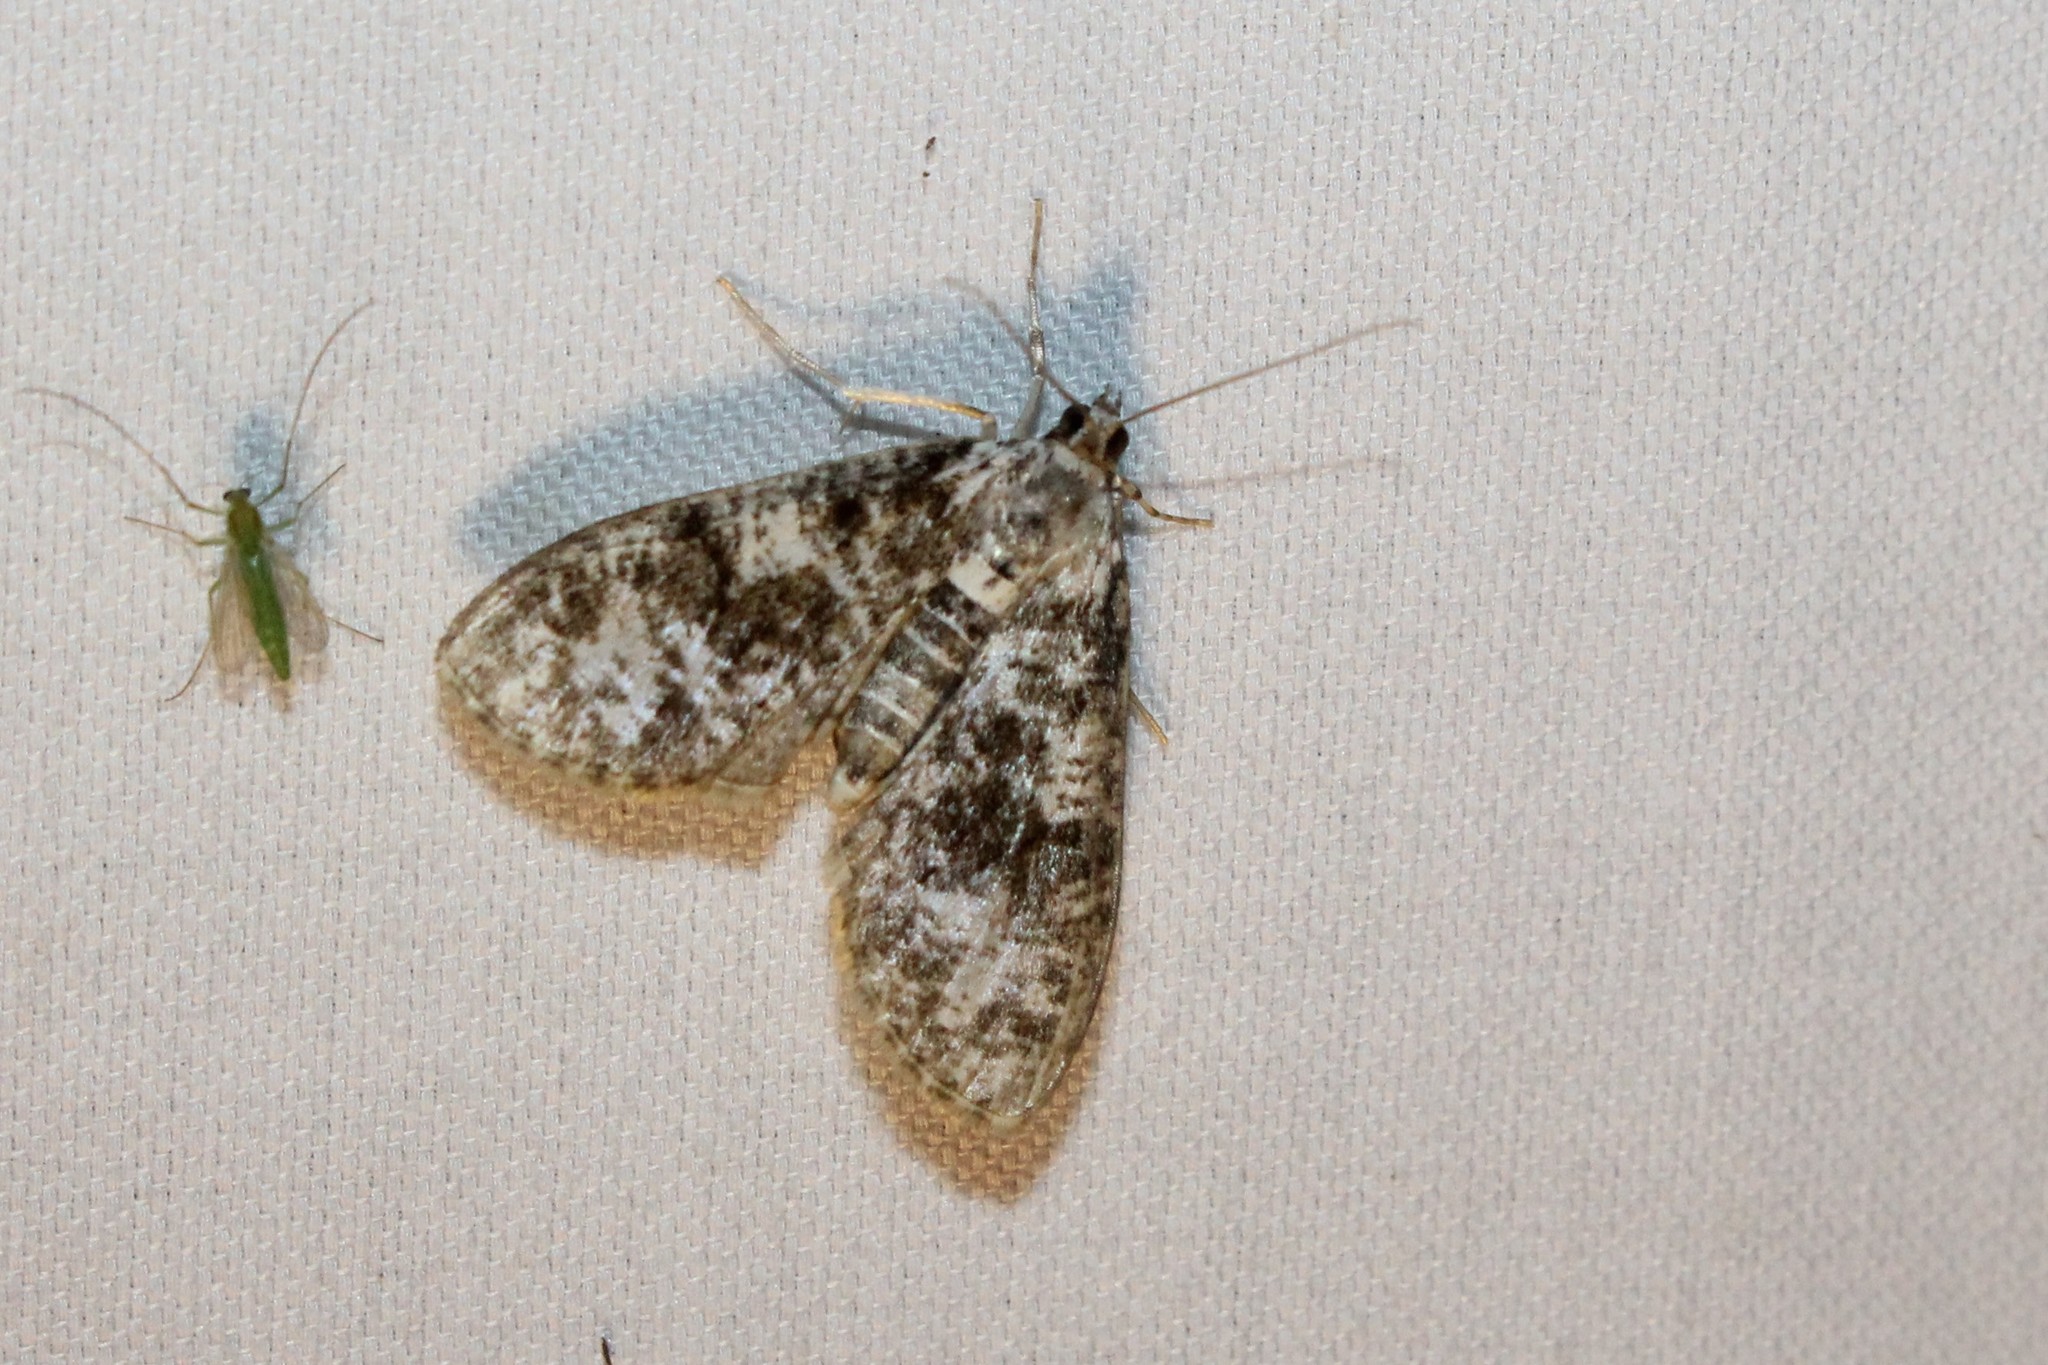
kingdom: Animalia
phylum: Arthropoda
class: Insecta
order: Lepidoptera
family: Crambidae
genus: Palpita
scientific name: Palpita magniferalis
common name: Splendid palpita moth
